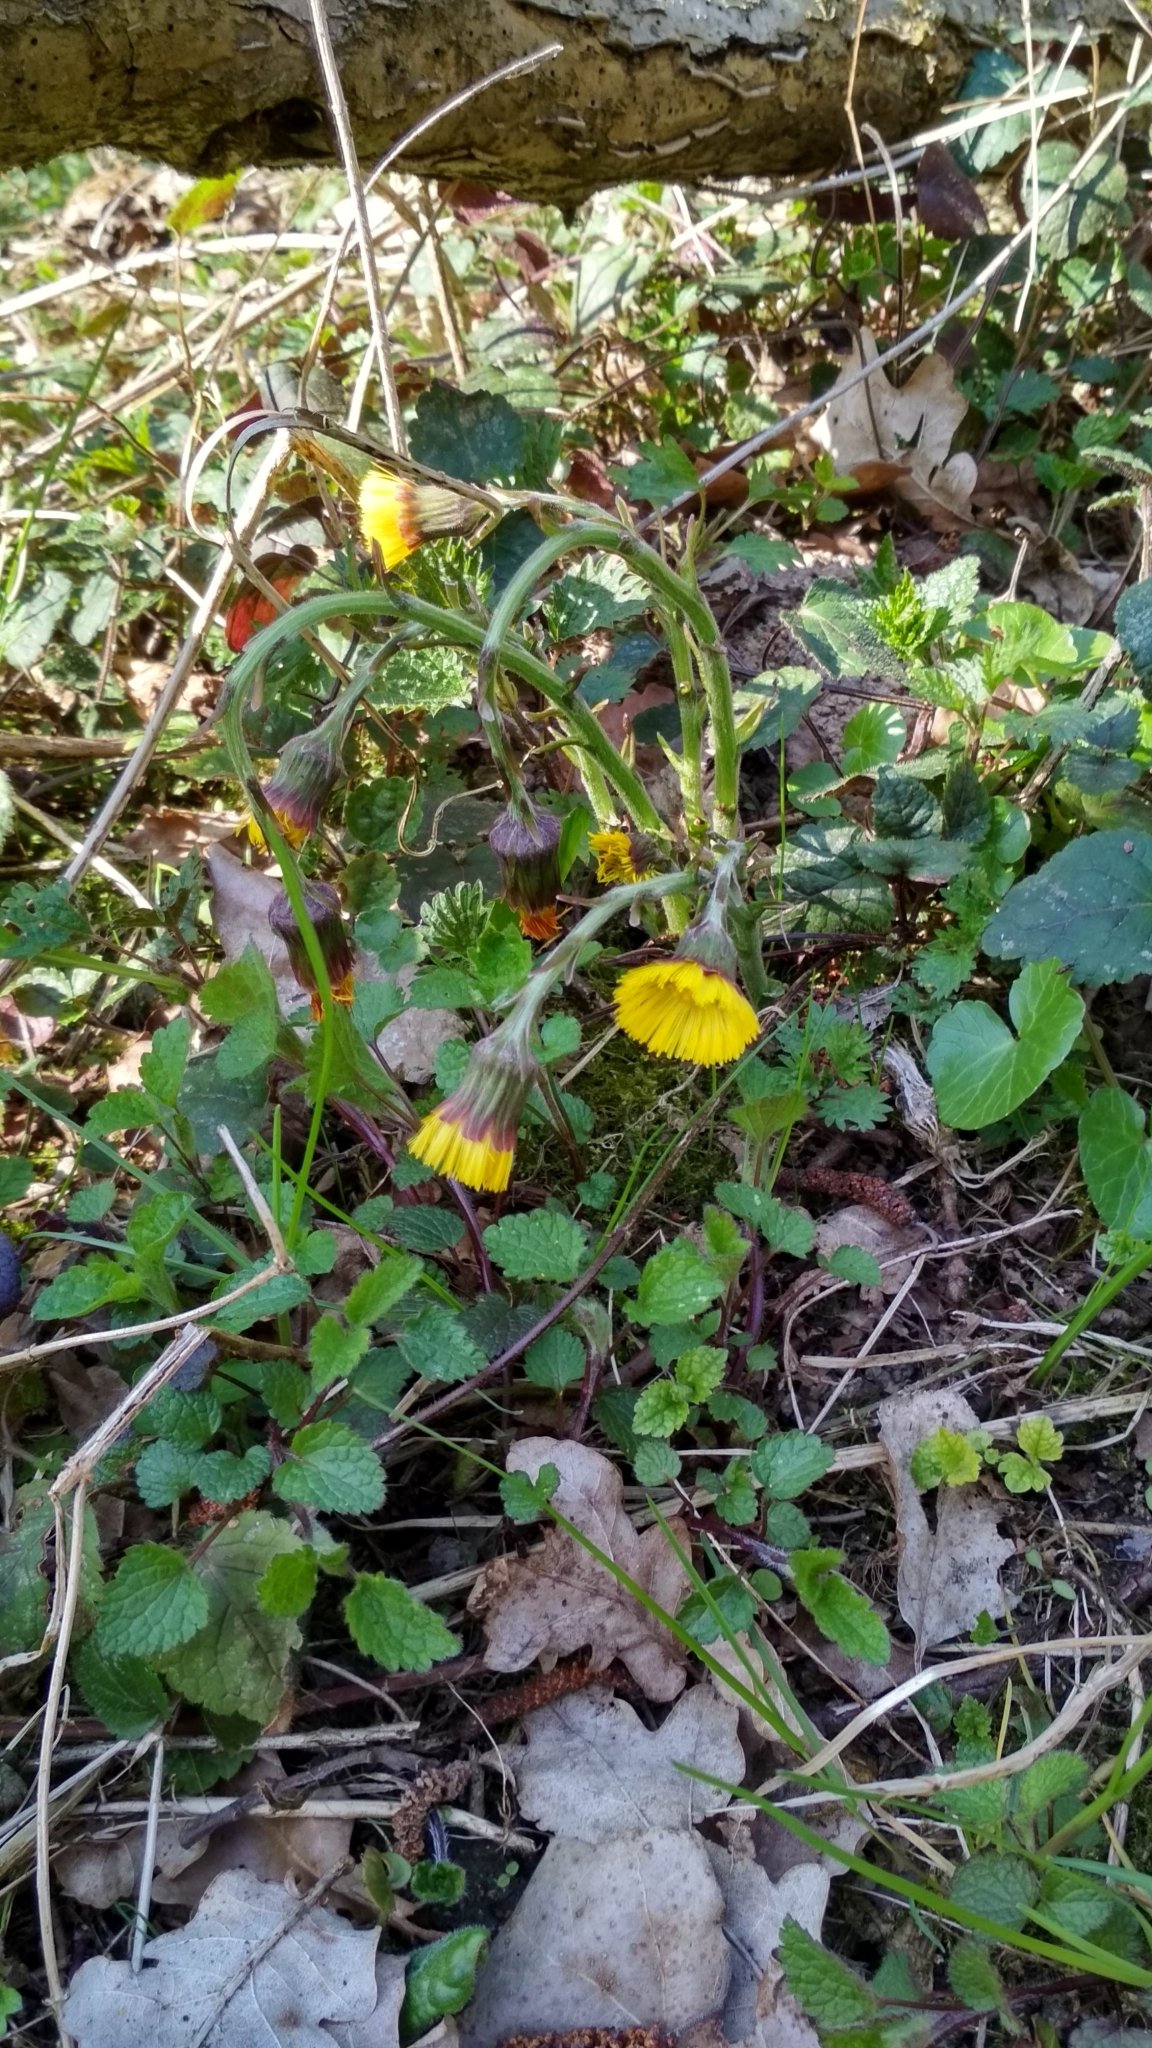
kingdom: Plantae
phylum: Tracheophyta
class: Magnoliopsida
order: Asterales
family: Asteraceae
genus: Tussilago
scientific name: Tussilago farfara
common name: Coltsfoot
